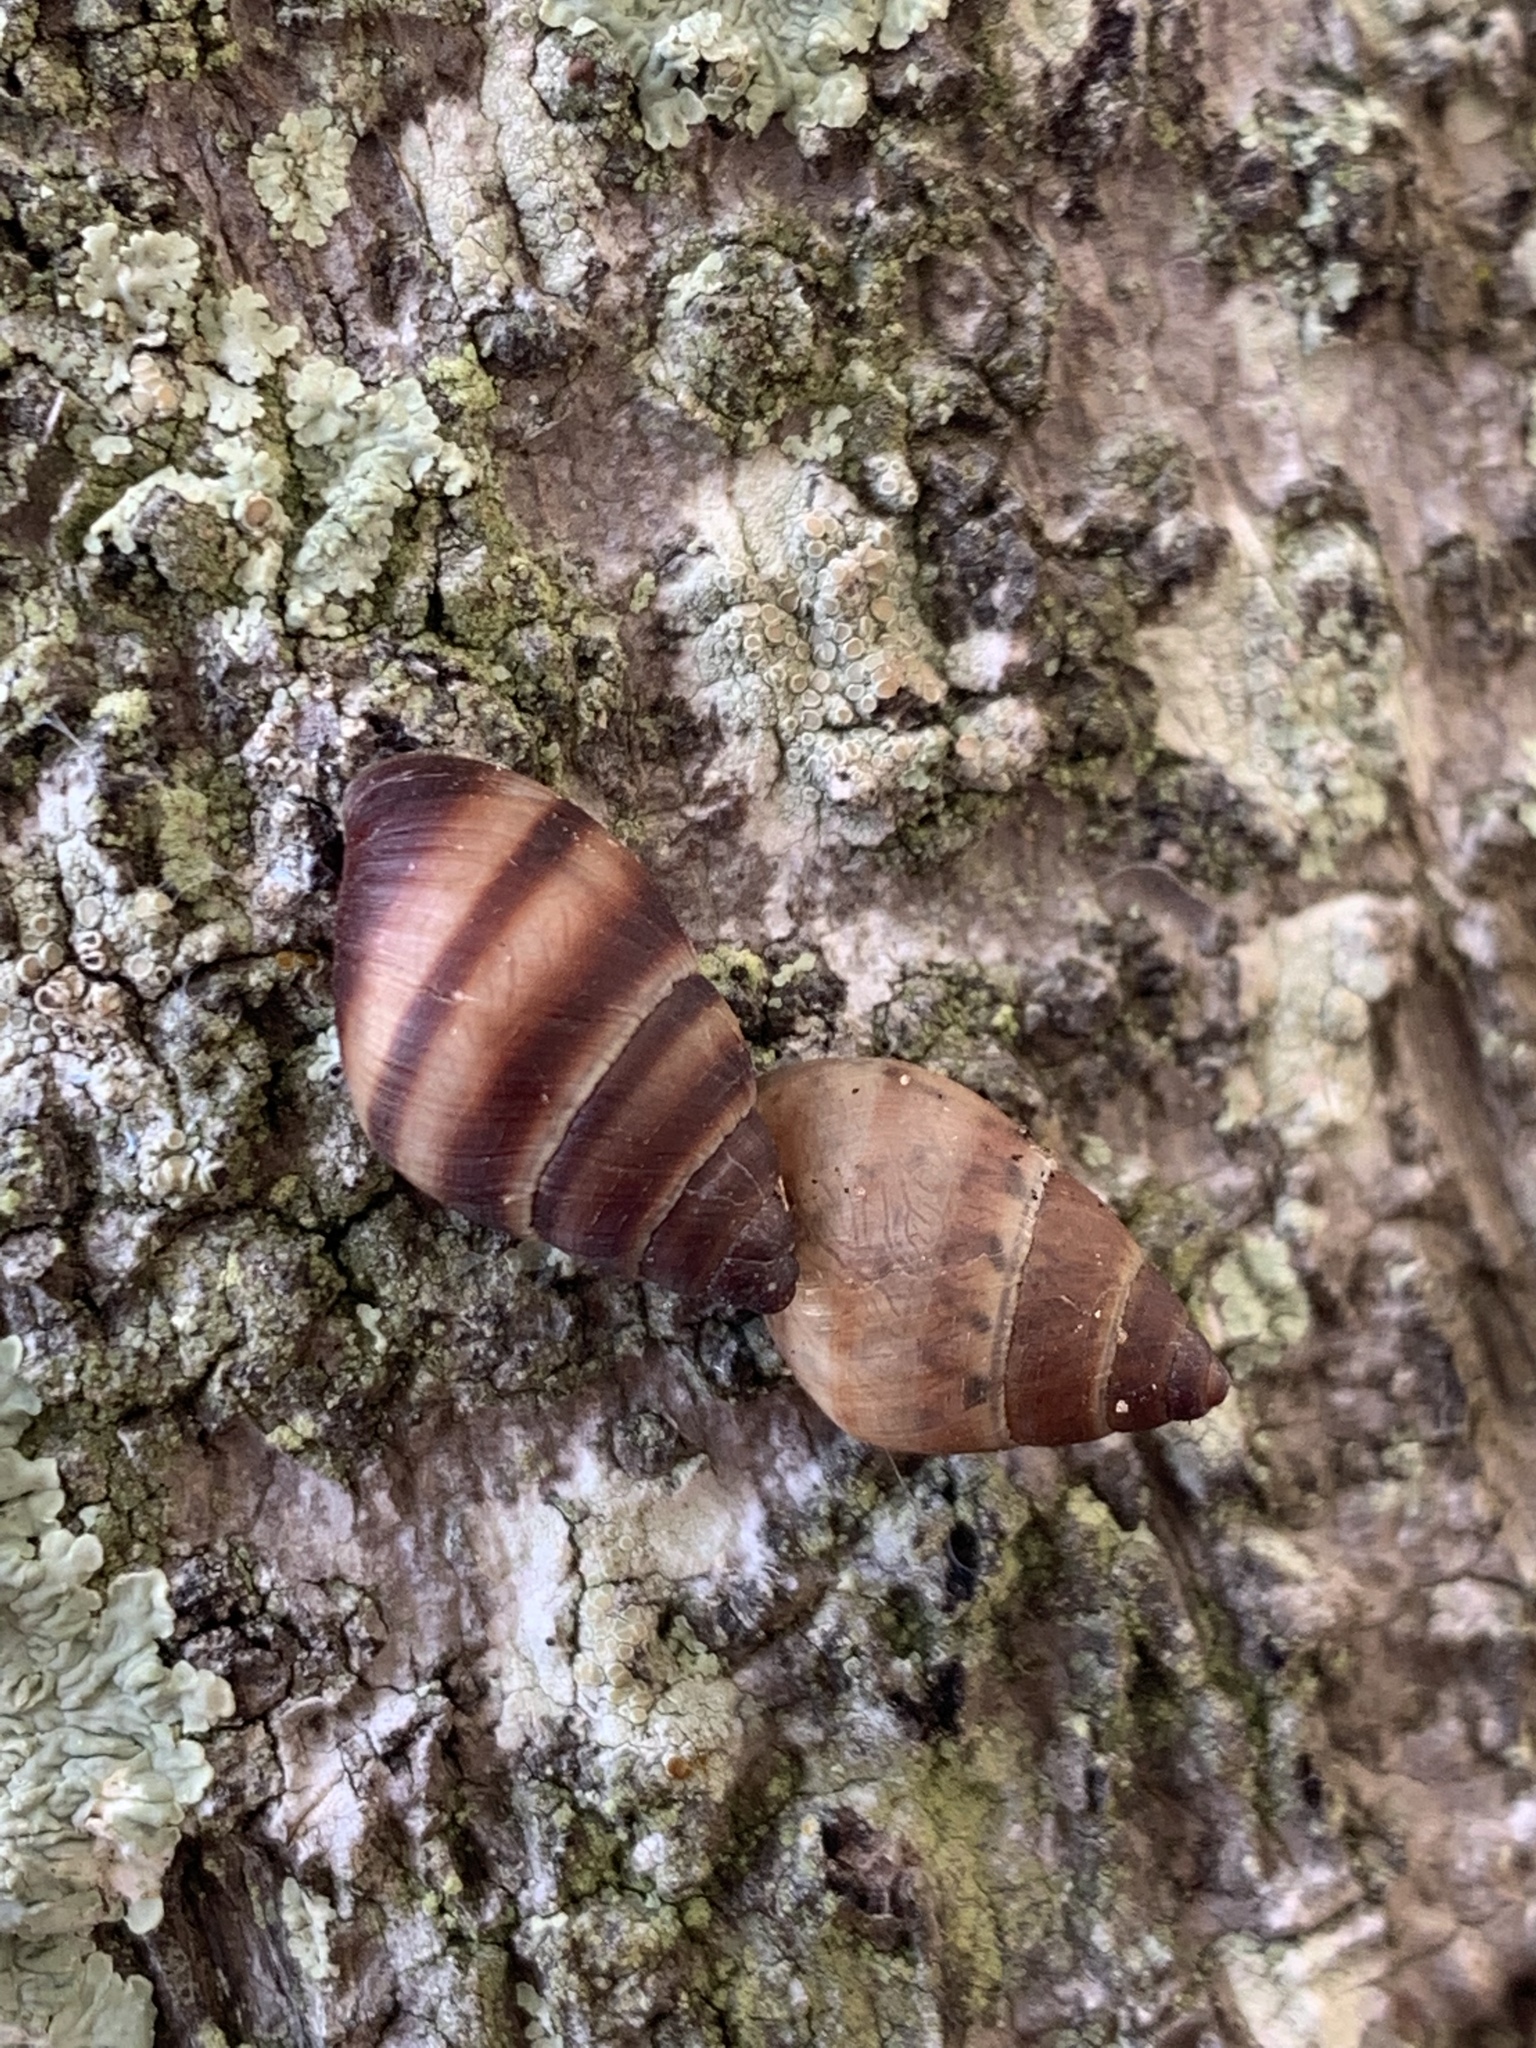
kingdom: Animalia
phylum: Mollusca
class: Gastropoda
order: Stylommatophora
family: Bulimulidae
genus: Bulimulus
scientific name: Bulimulus guadalupensis
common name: West indian bulimulus
